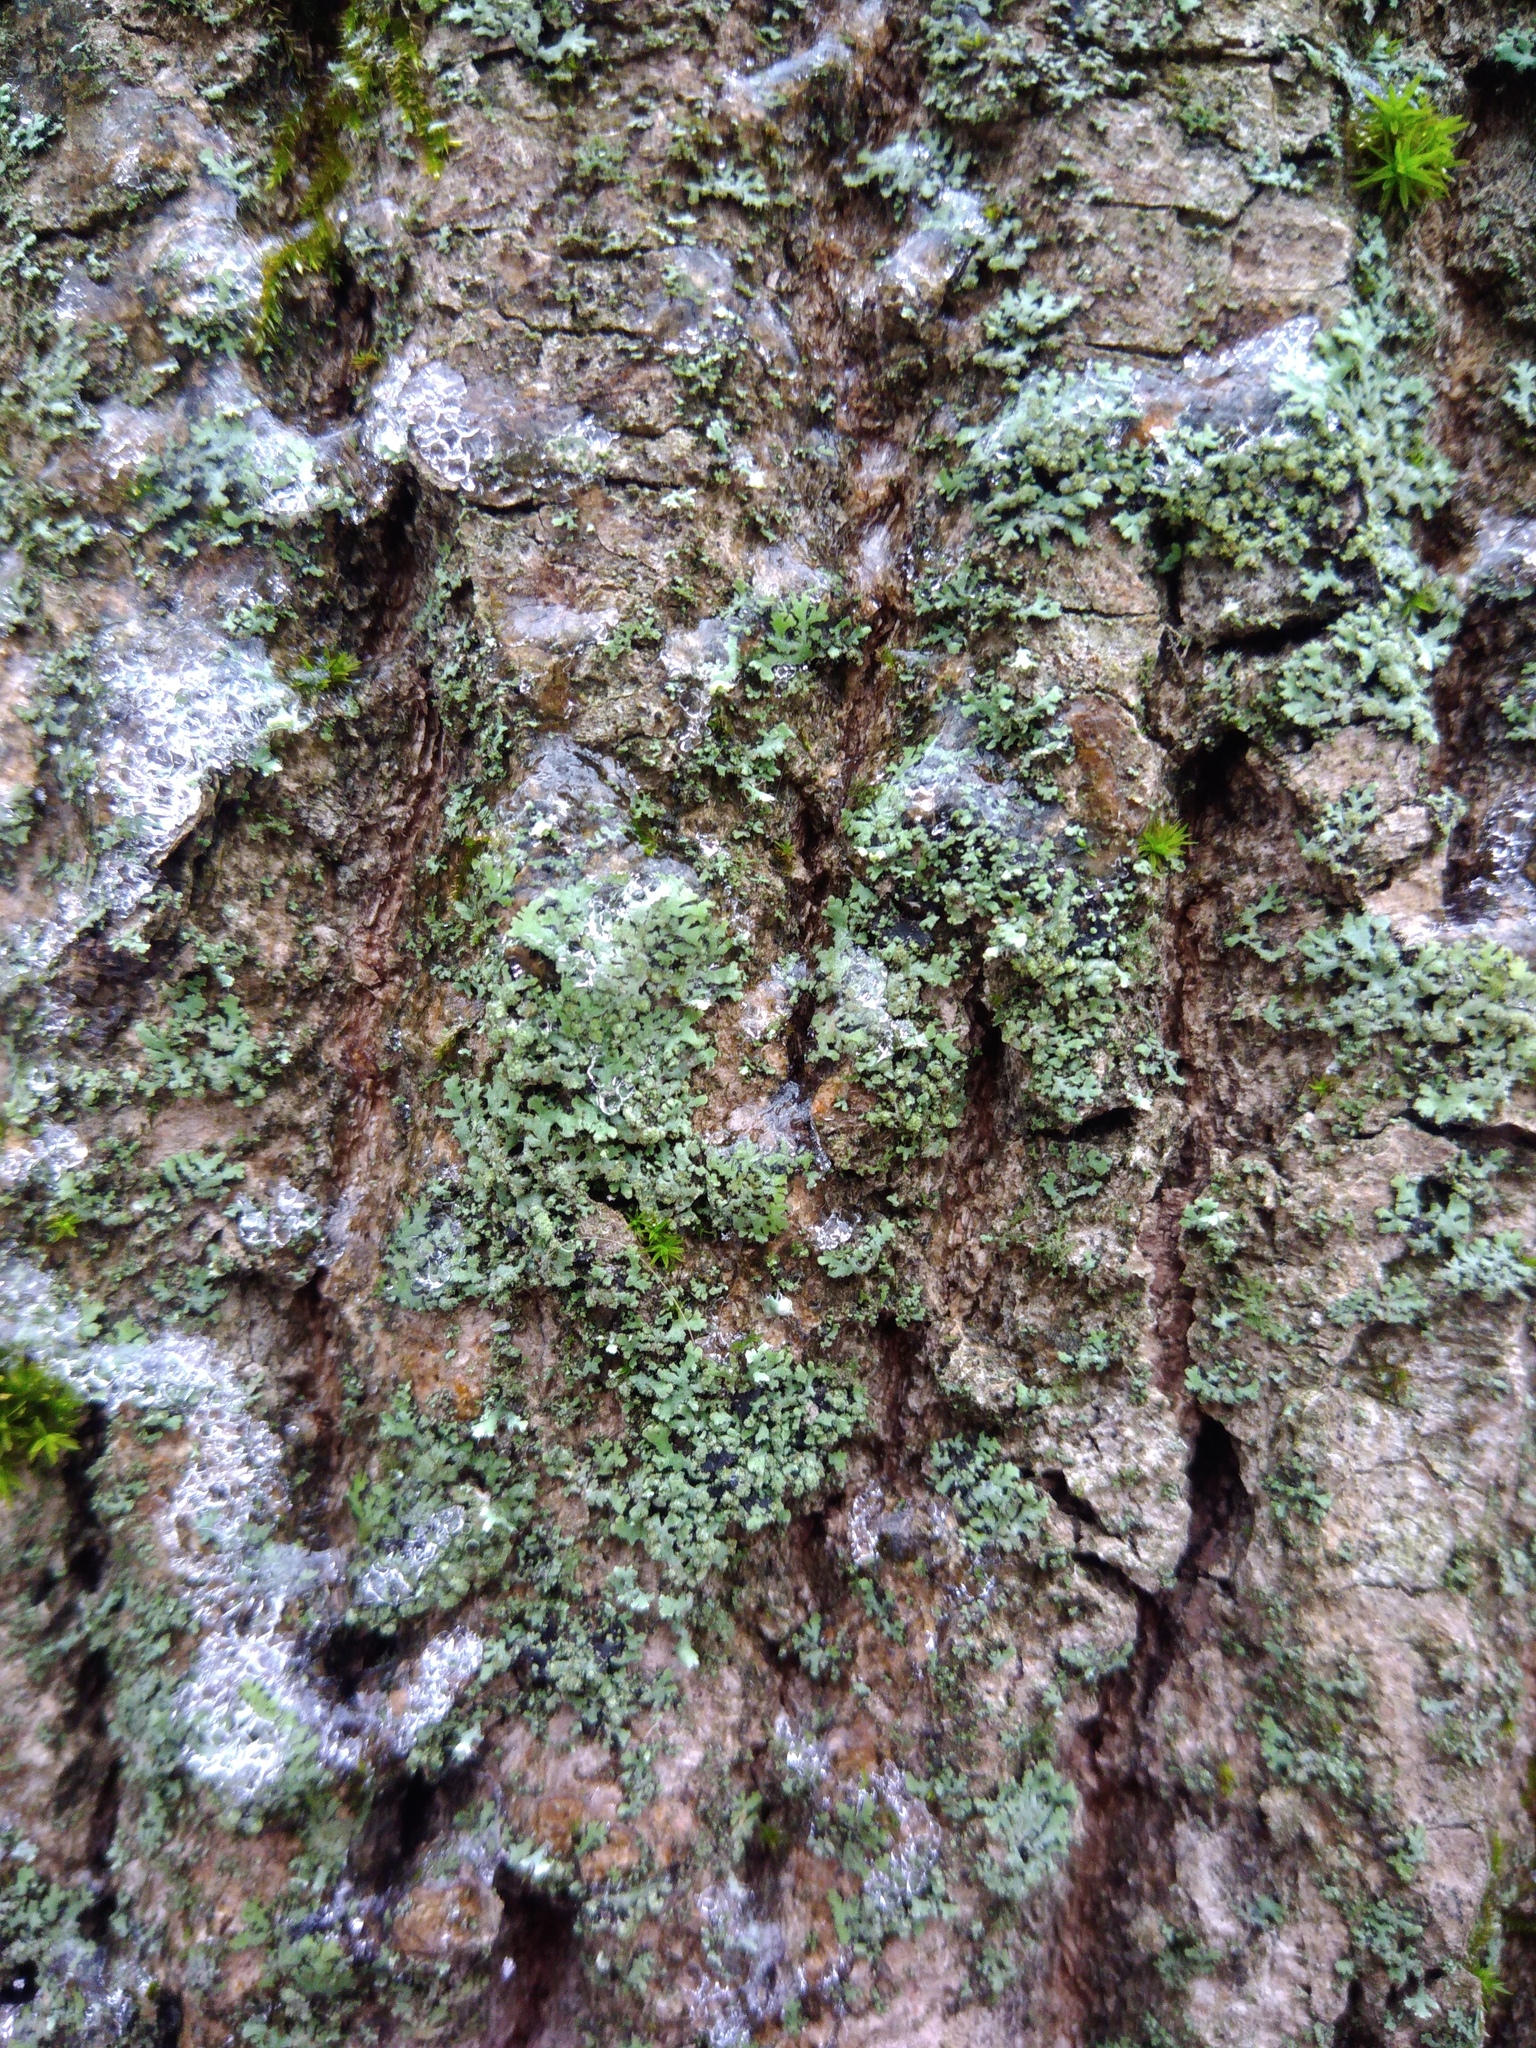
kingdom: Fungi
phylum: Ascomycota
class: Lecanoromycetes
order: Caliciales
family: Physciaceae
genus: Phaeophyscia
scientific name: Phaeophyscia orbicularis
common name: Mealy shadow lichen
